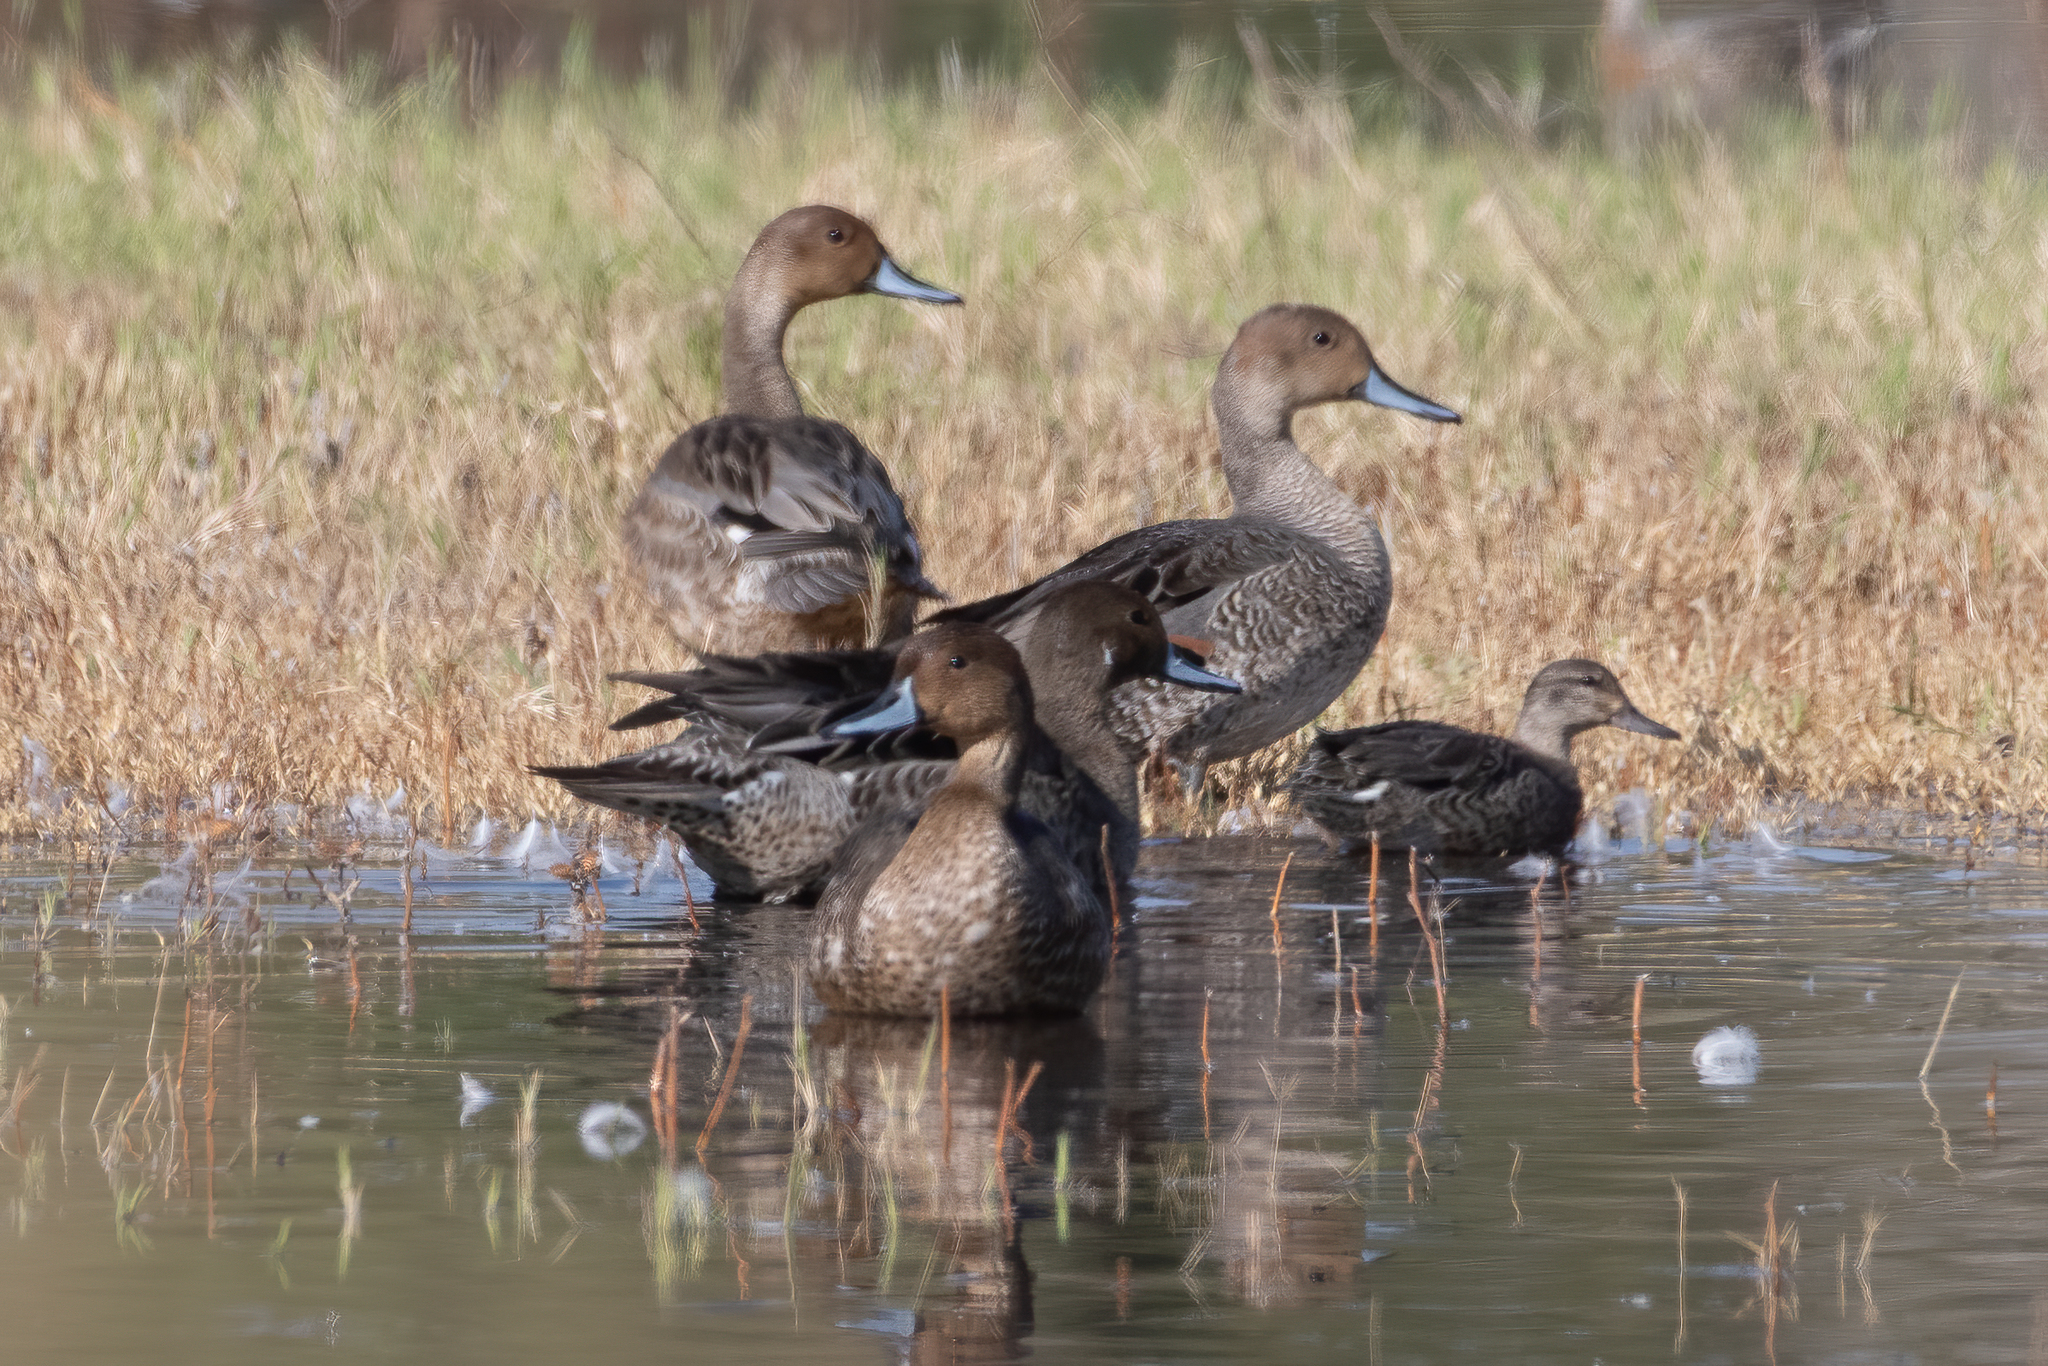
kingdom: Animalia
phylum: Chordata
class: Aves
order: Anseriformes
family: Anatidae
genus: Anas
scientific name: Anas acuta
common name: Northern pintail
